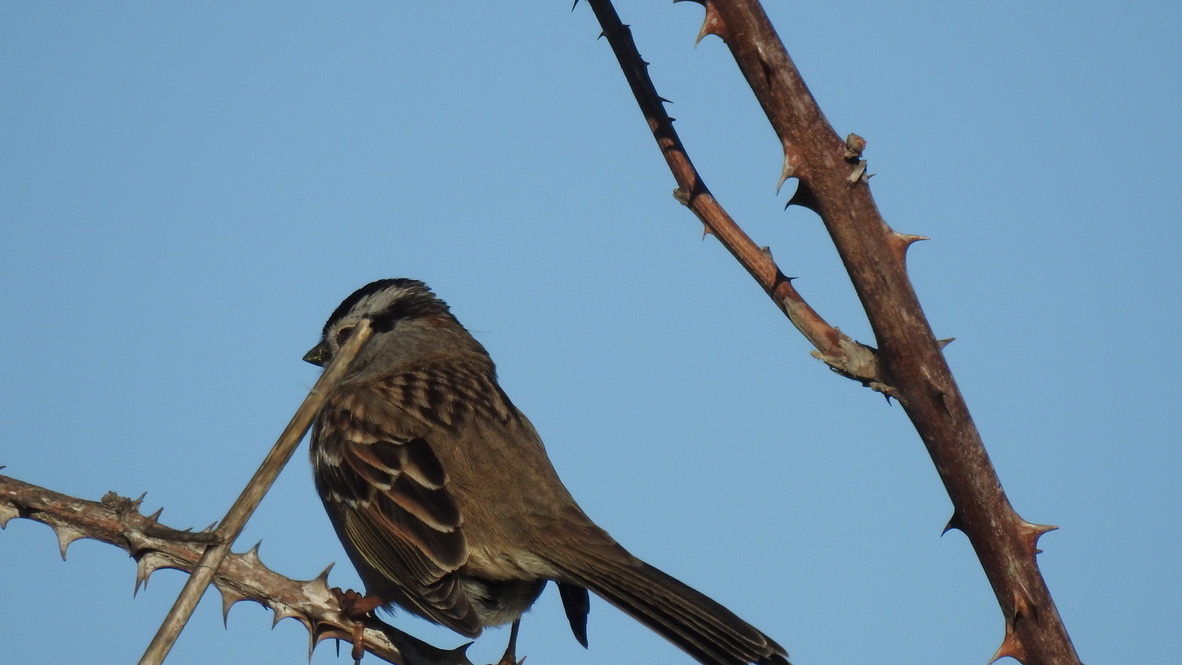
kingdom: Animalia
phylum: Chordata
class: Aves
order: Passeriformes
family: Passerellidae
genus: Zonotrichia
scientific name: Zonotrichia leucophrys
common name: White-crowned sparrow
